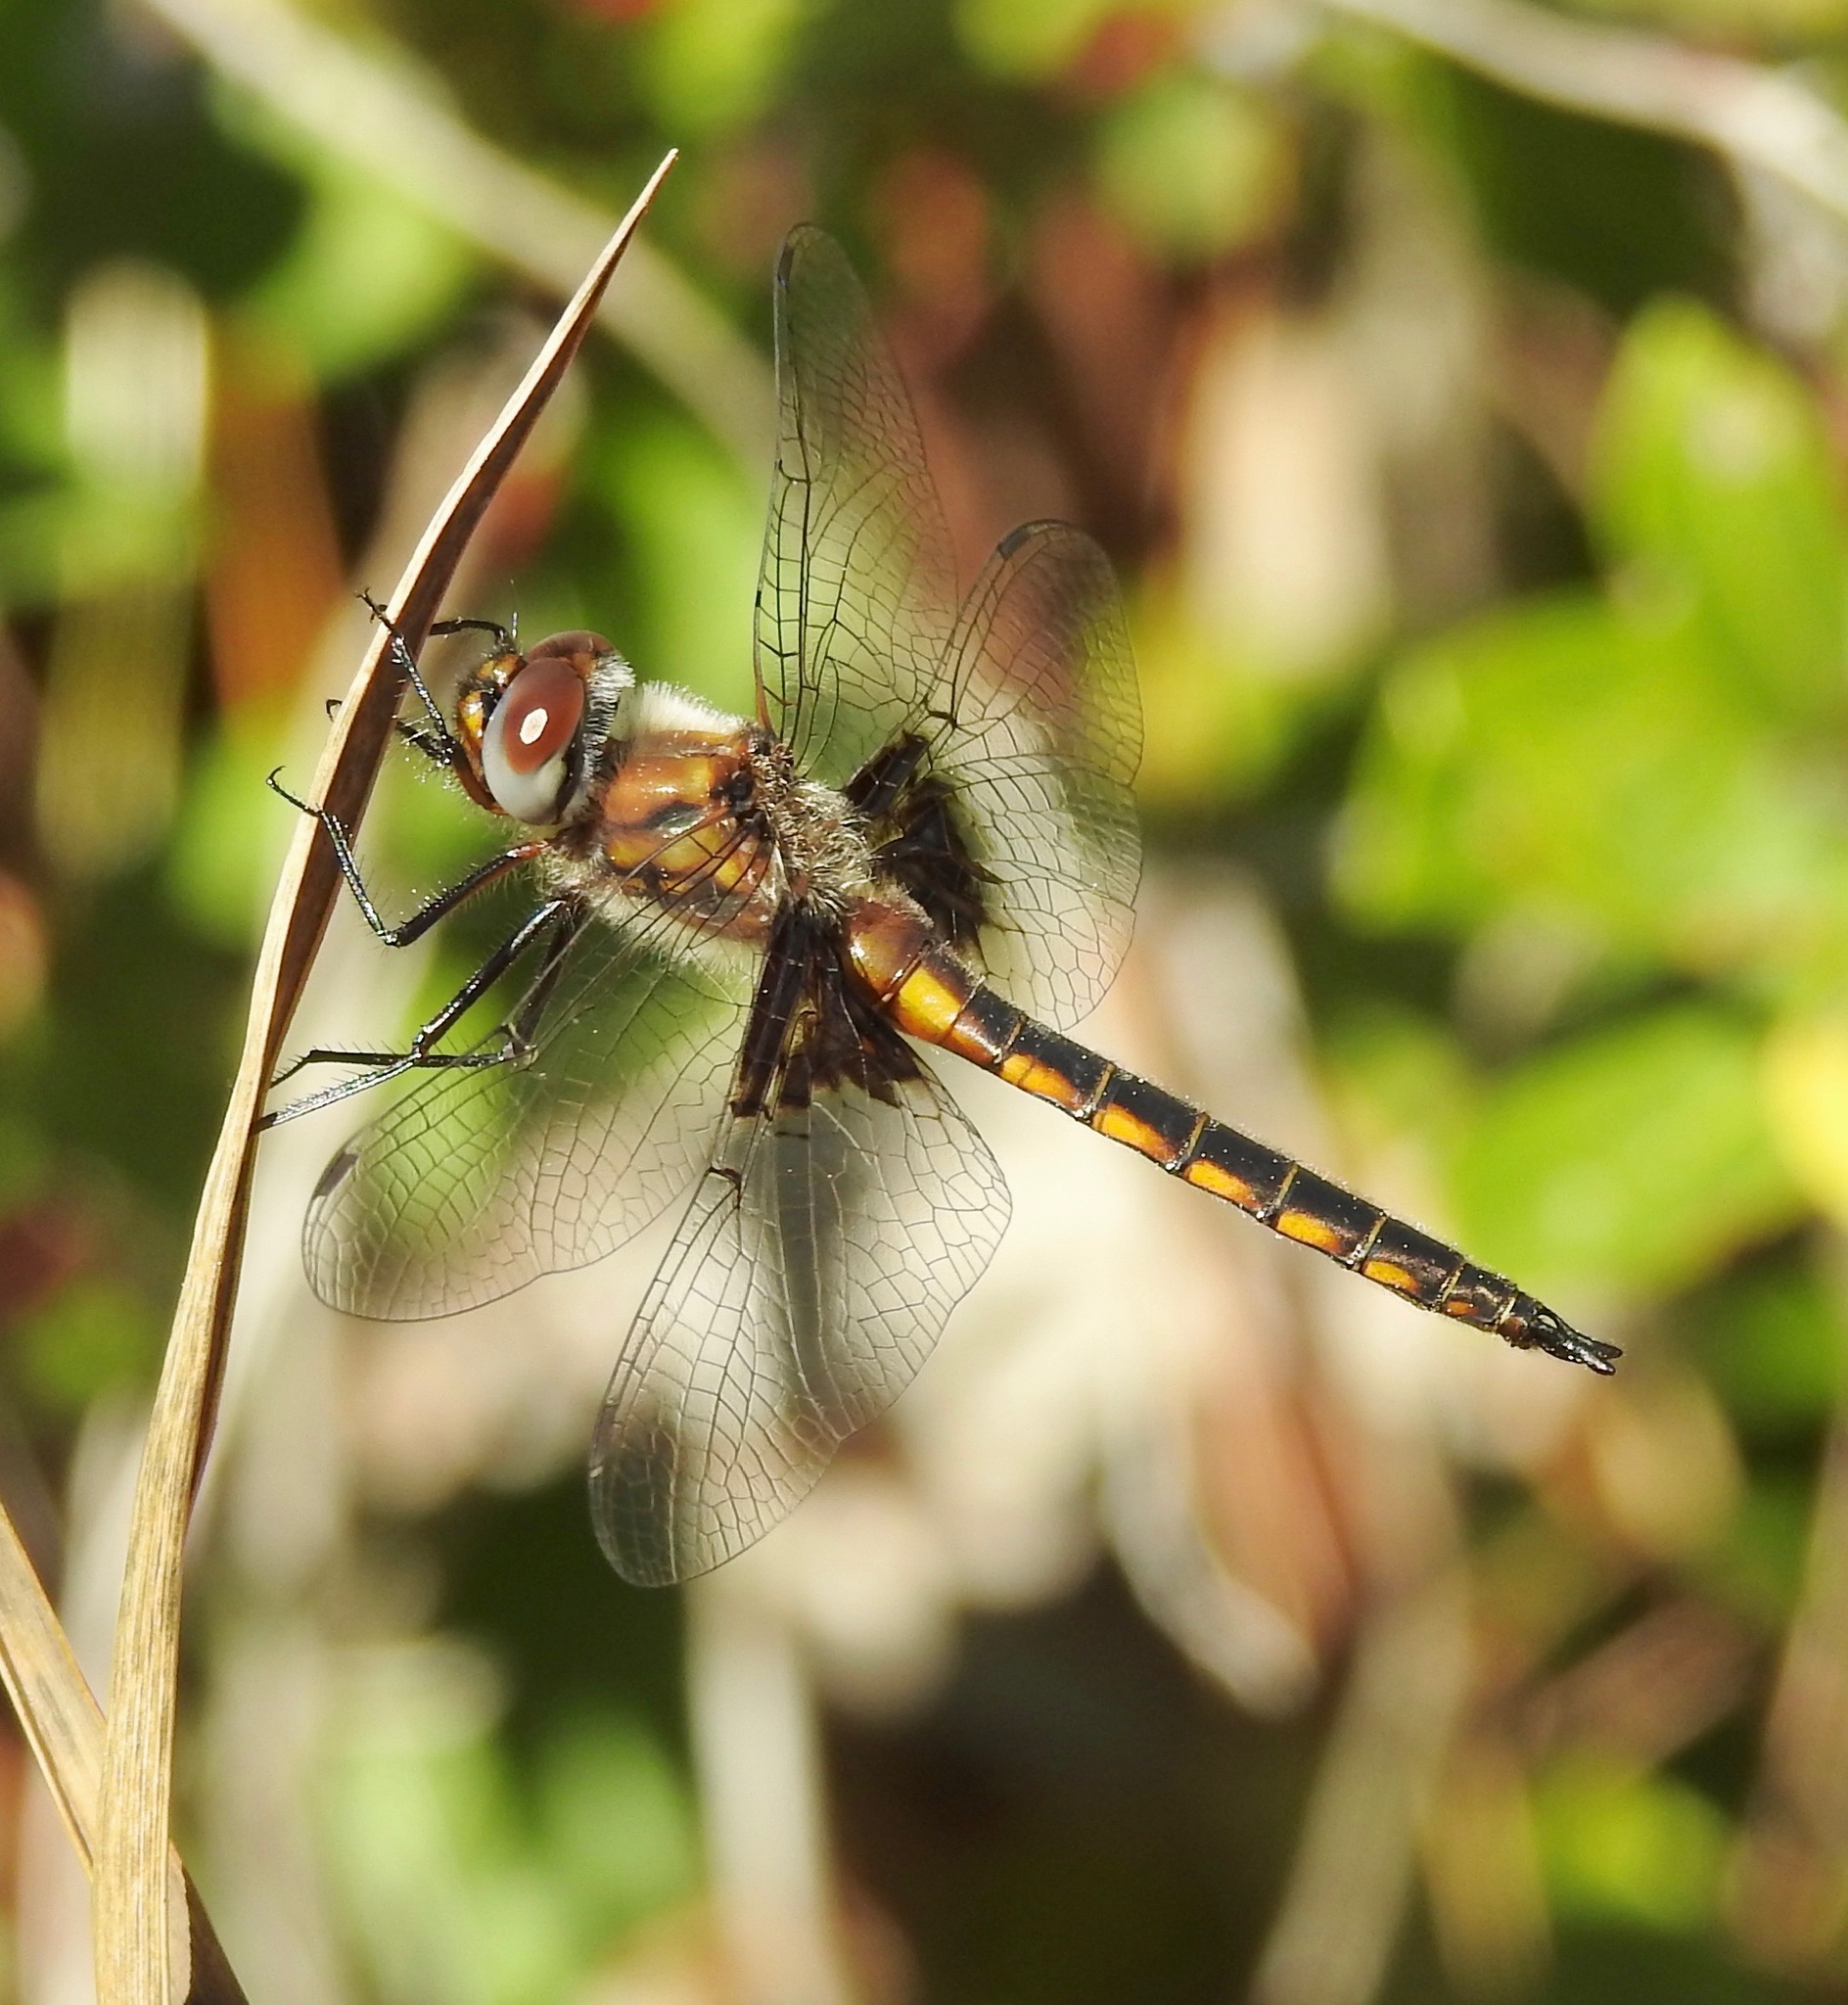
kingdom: Animalia
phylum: Arthropoda
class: Insecta
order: Odonata
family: Corduliidae
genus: Epitheca
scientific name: Epitheca cynosura
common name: Common baskettail
